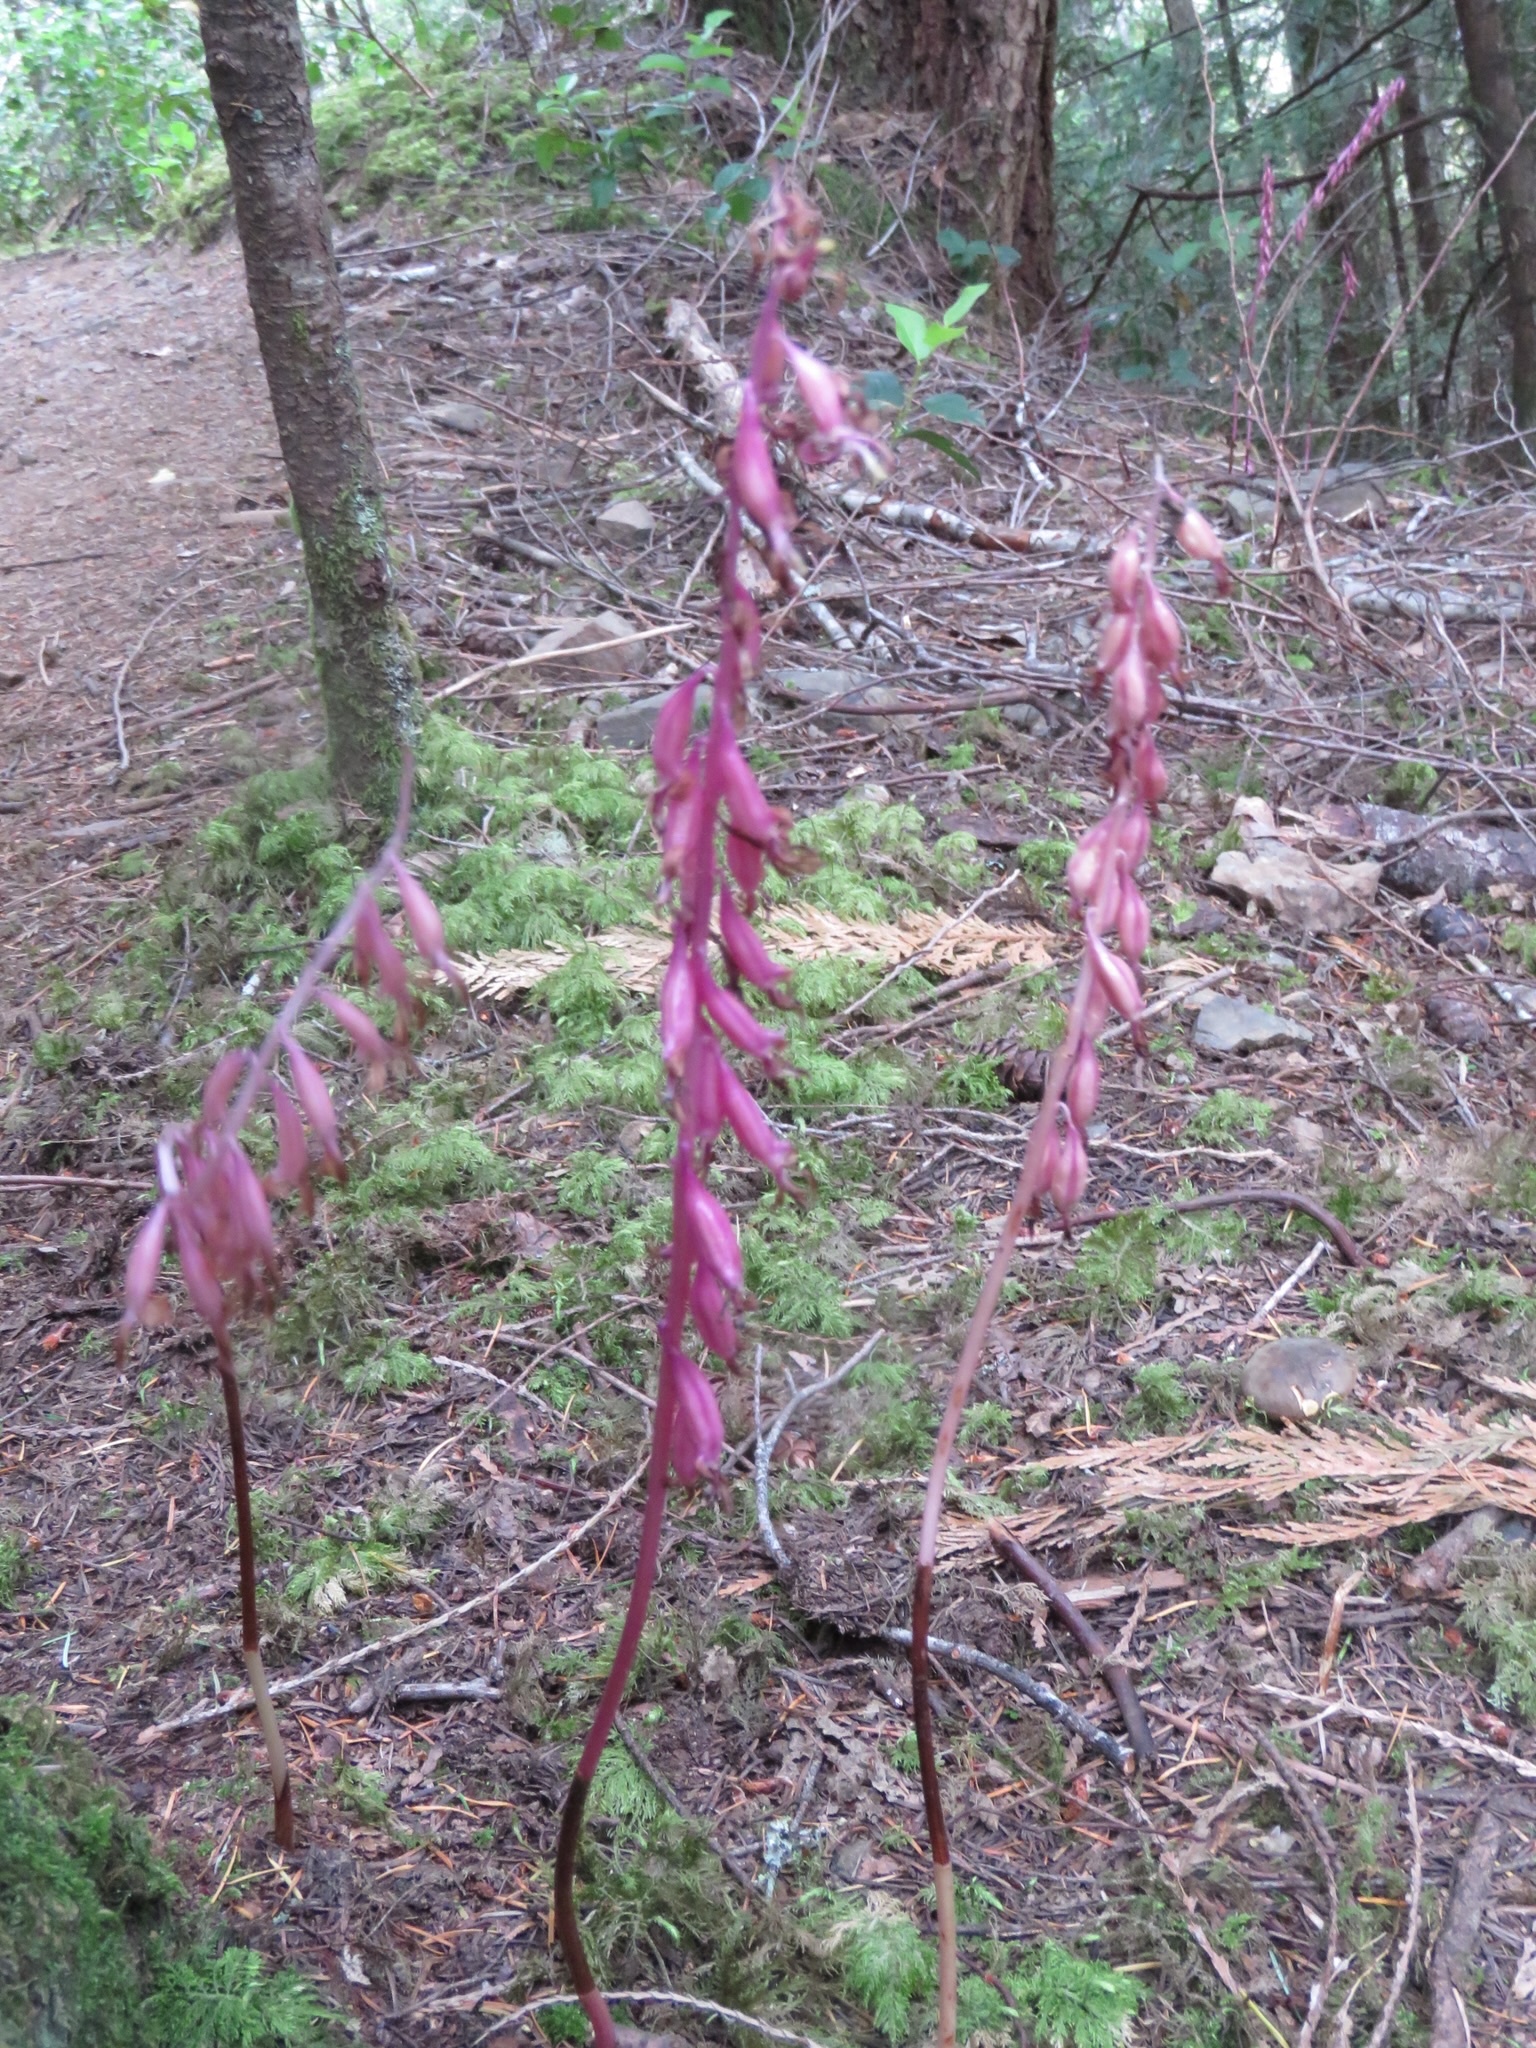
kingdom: Plantae
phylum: Tracheophyta
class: Liliopsida
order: Asparagales
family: Orchidaceae
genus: Corallorhiza
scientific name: Corallorhiza mertensiana
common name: Pacific coralroot
